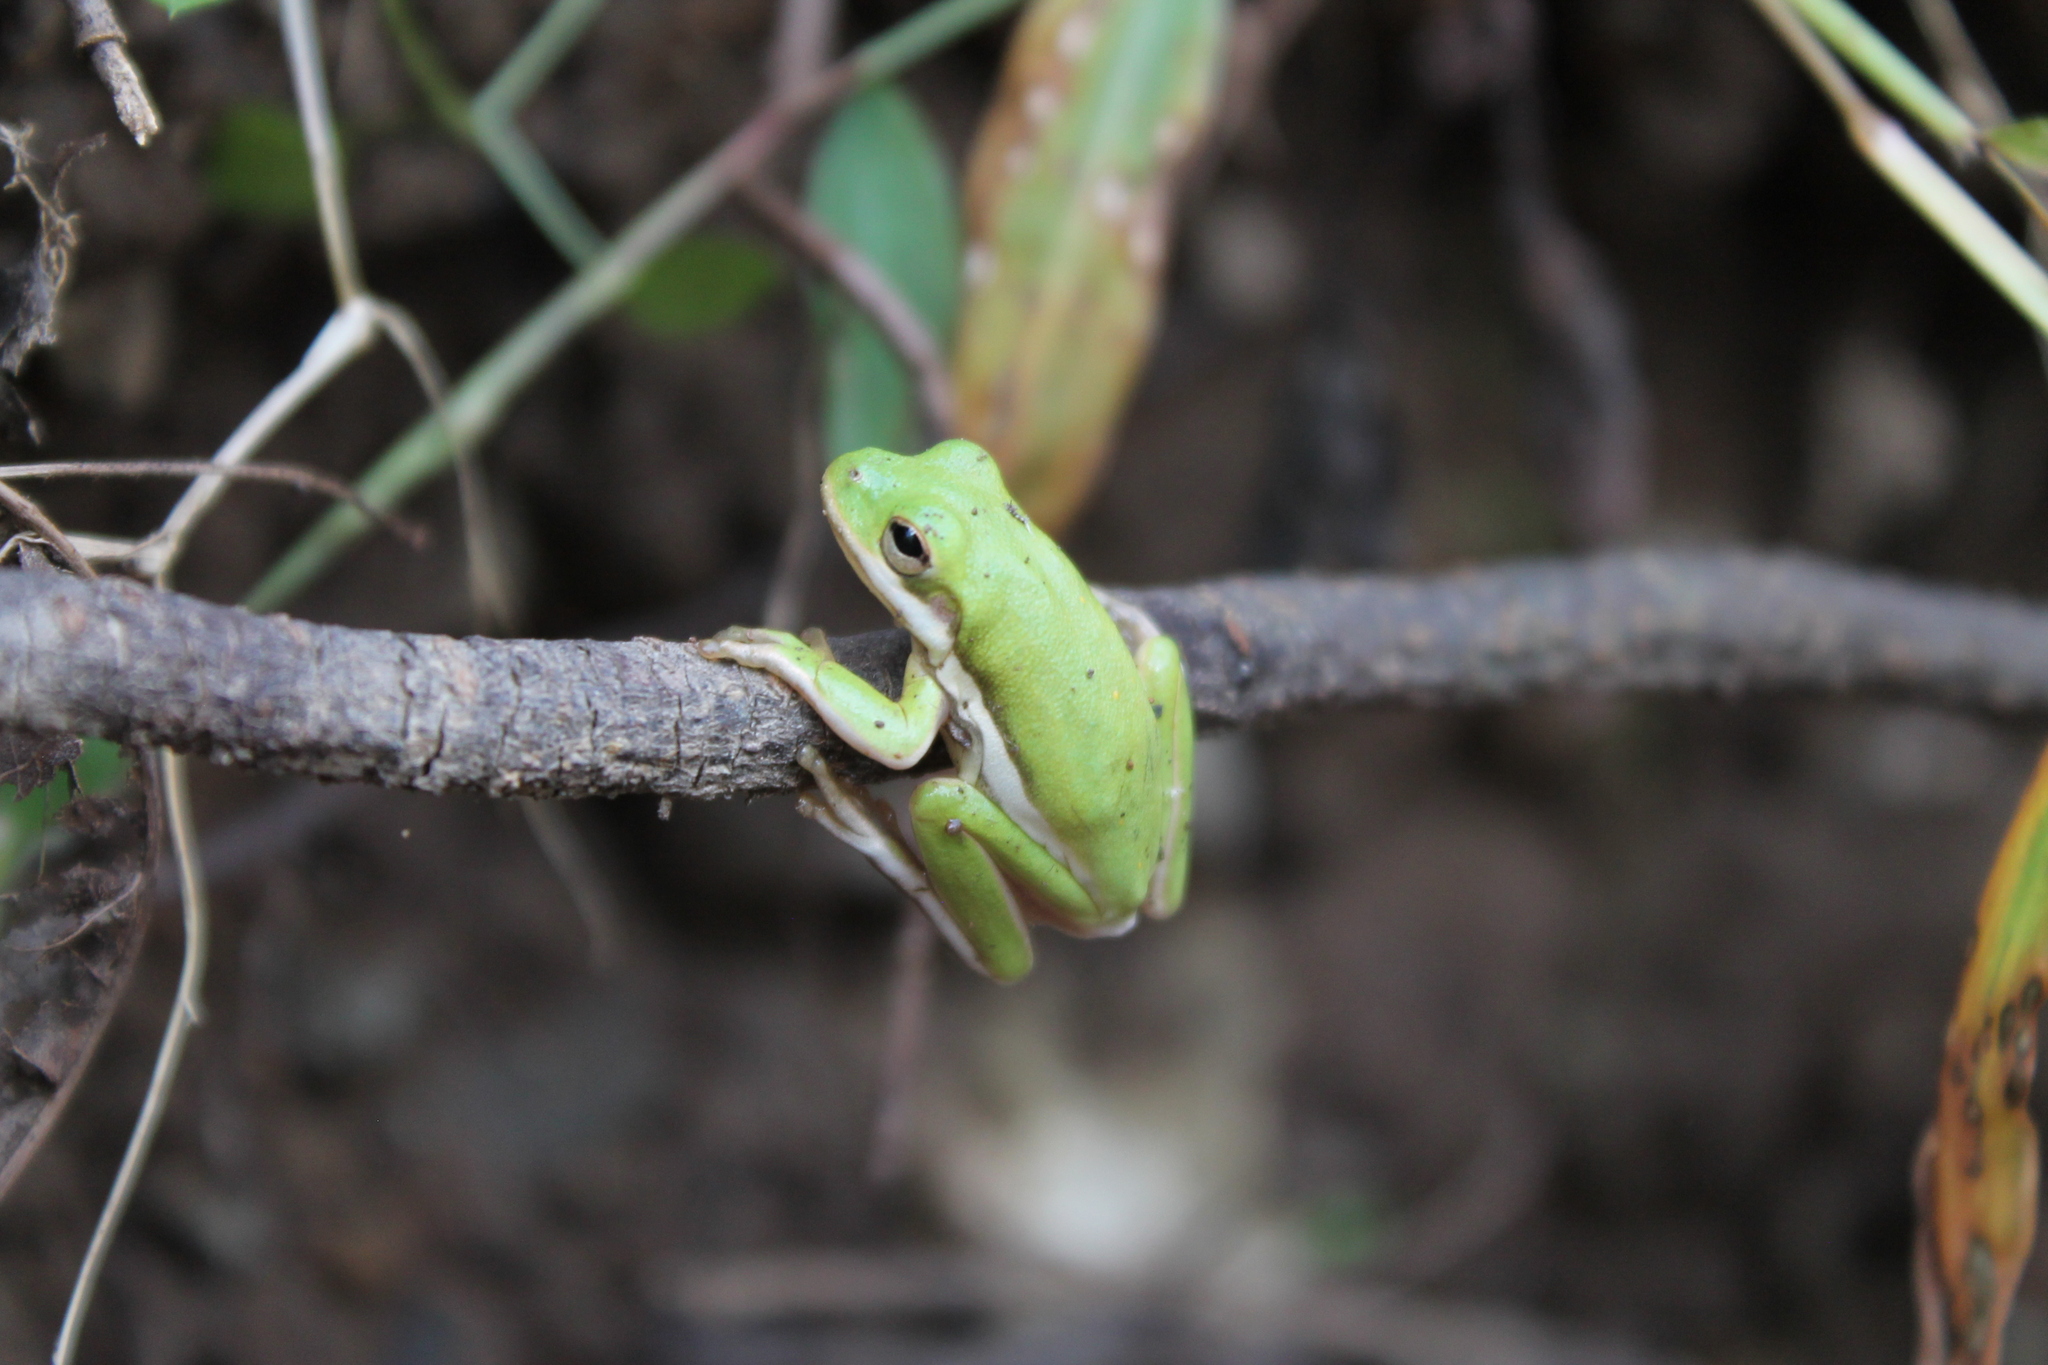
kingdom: Animalia
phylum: Chordata
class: Amphibia
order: Anura
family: Hylidae
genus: Dryophytes
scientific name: Dryophytes cinereus
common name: Green treefrog
